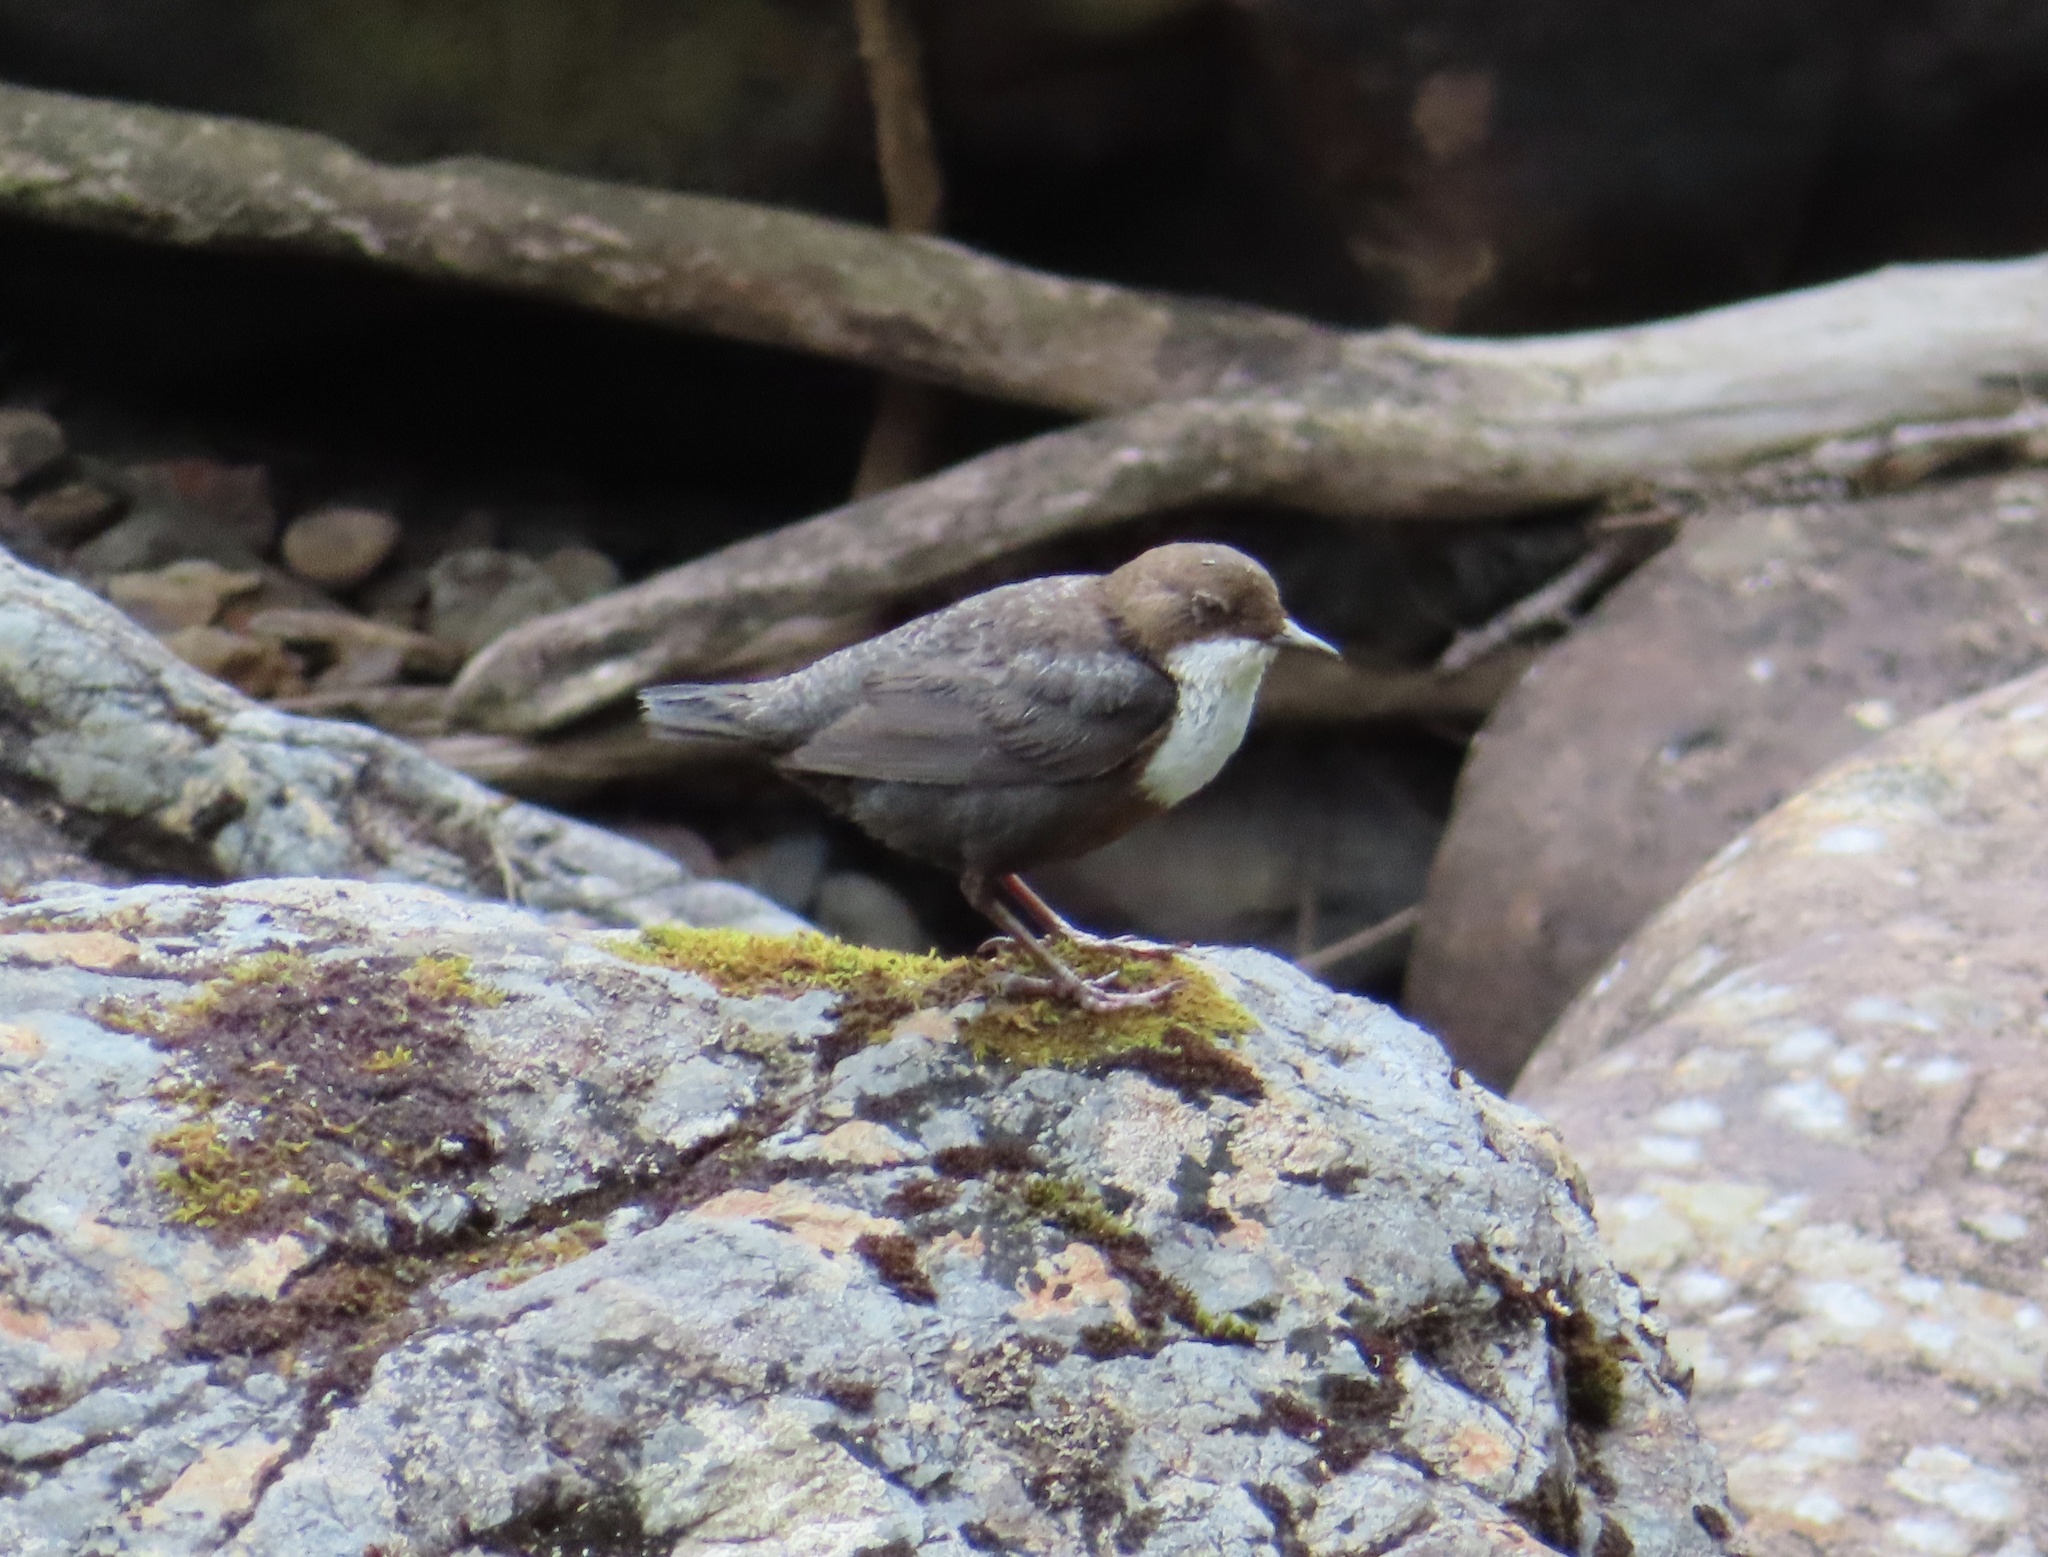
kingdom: Animalia
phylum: Chordata
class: Aves
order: Passeriformes
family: Cinclidae
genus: Cinclus
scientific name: Cinclus cinclus
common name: White-throated dipper
